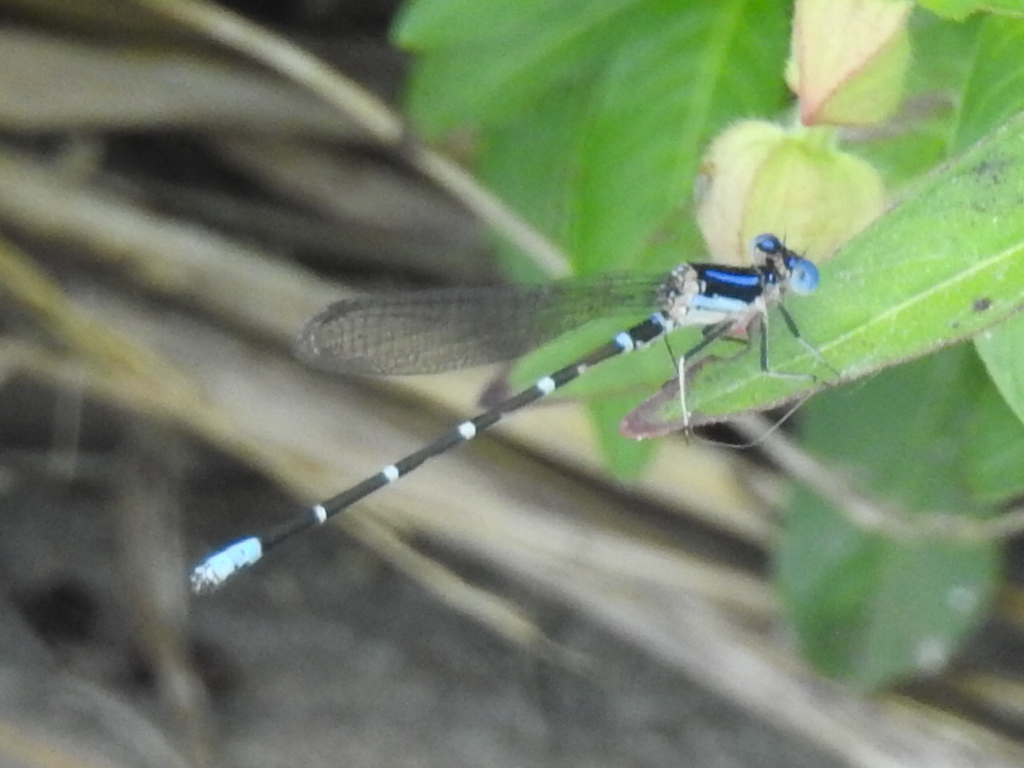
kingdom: Animalia
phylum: Arthropoda
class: Insecta
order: Odonata
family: Coenagrionidae
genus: Argia
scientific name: Argia sedula
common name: Blue-ringed dancer
